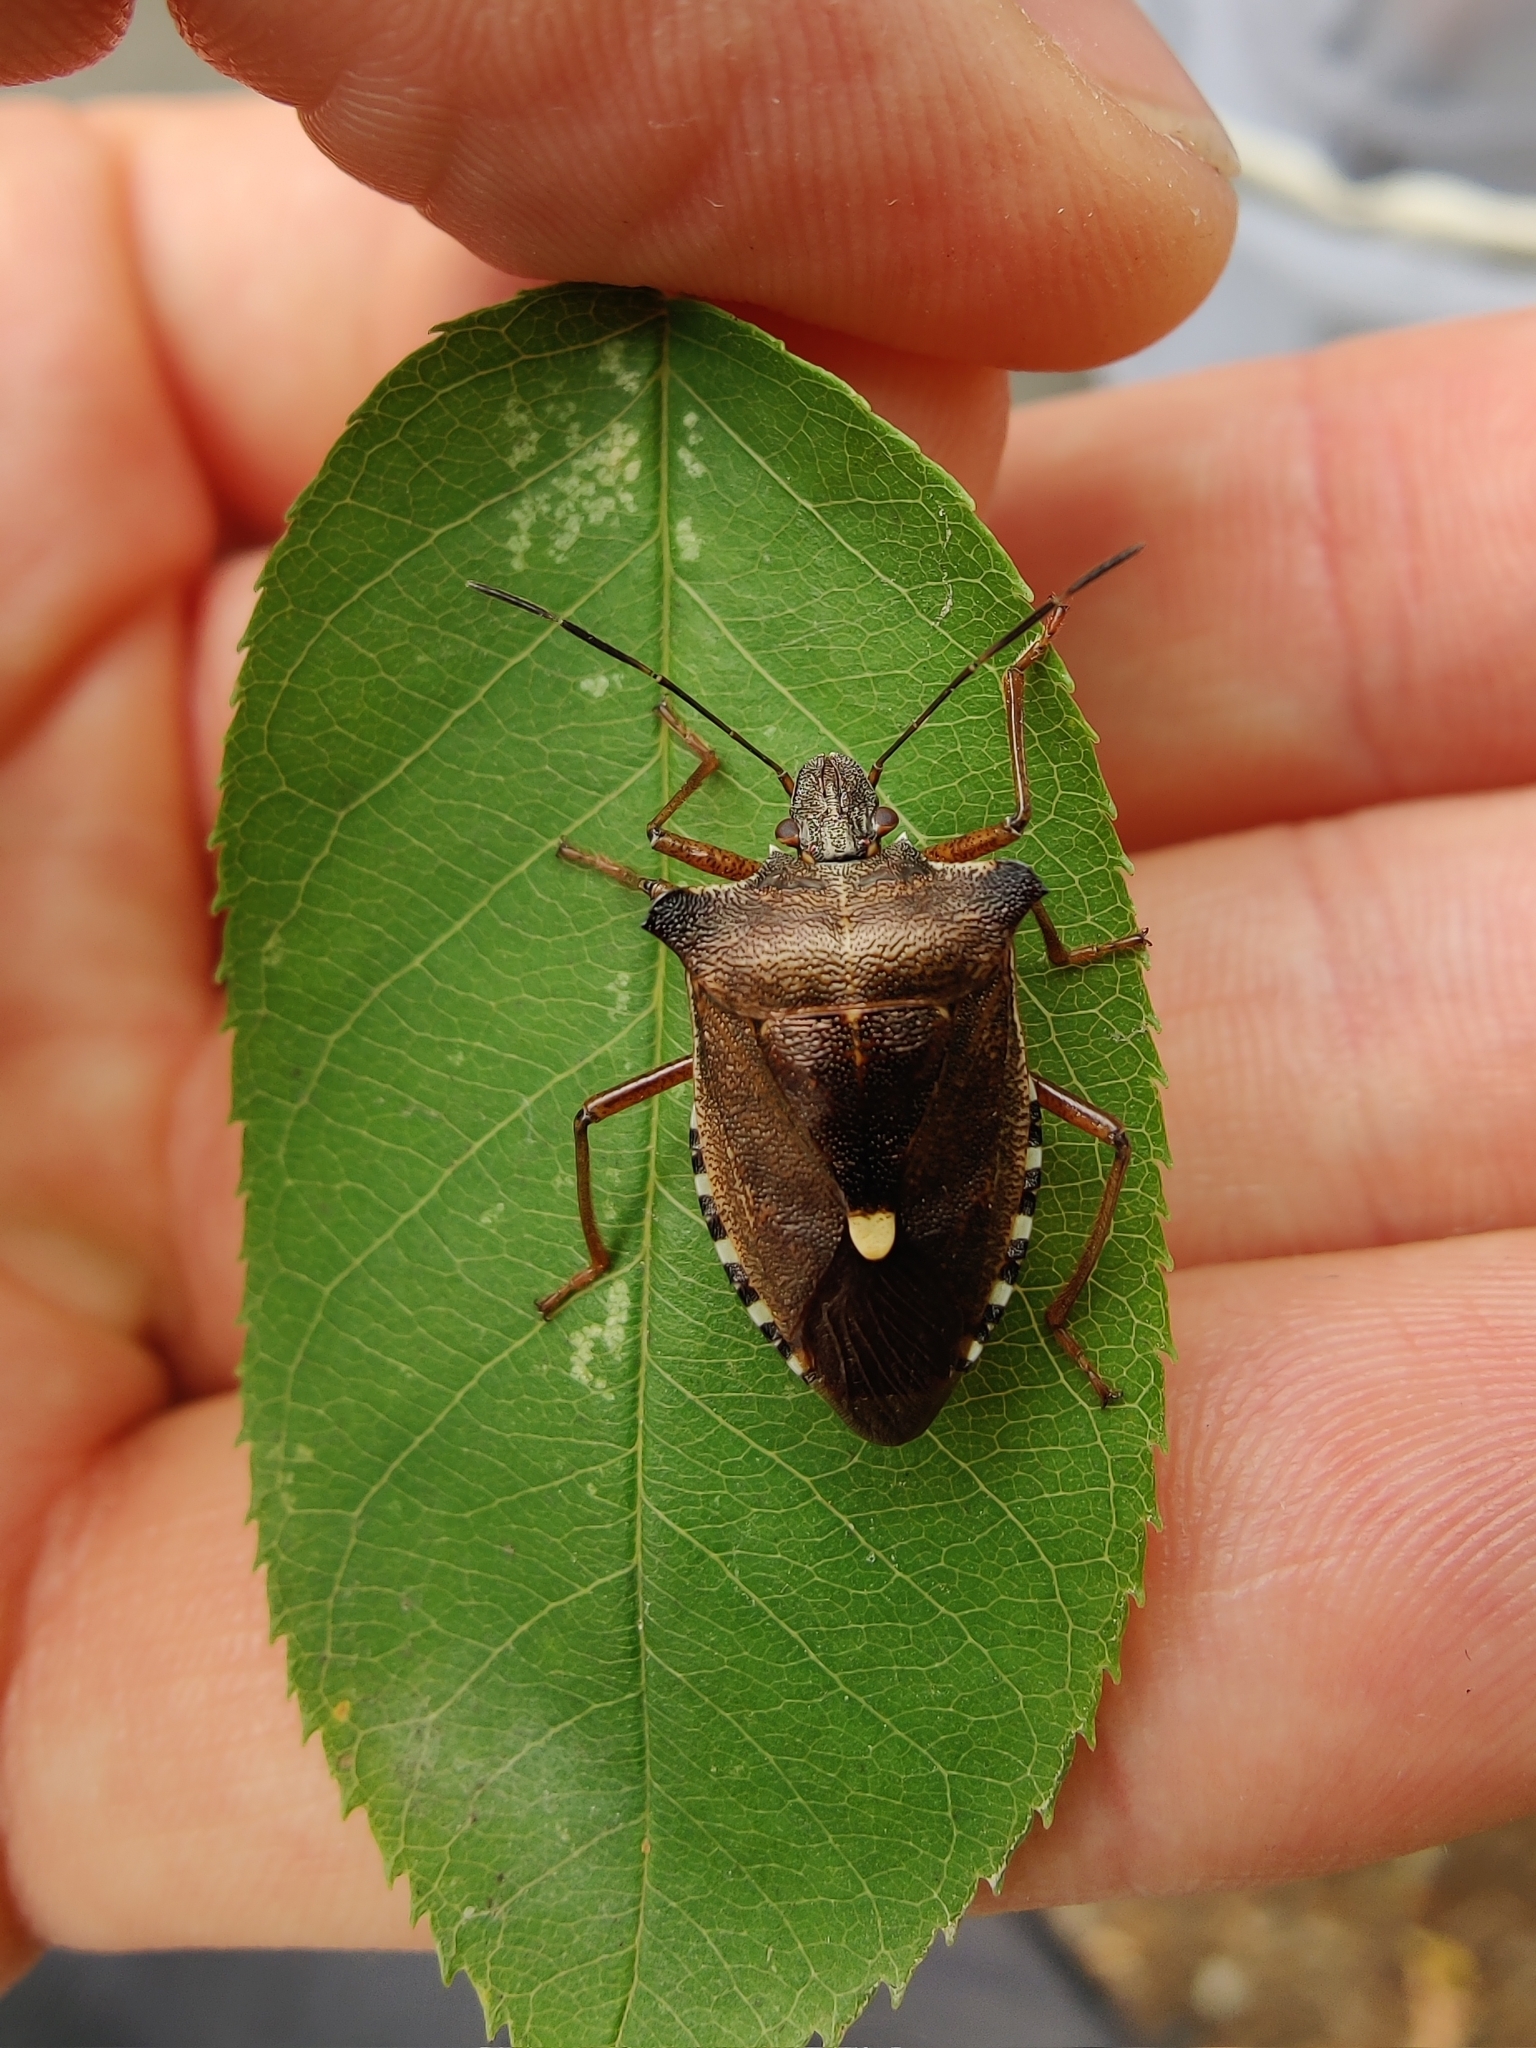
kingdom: Animalia
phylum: Arthropoda
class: Insecta
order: Hemiptera
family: Pentatomidae
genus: Pentatoma
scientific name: Pentatoma rufipes
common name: Forest bug
